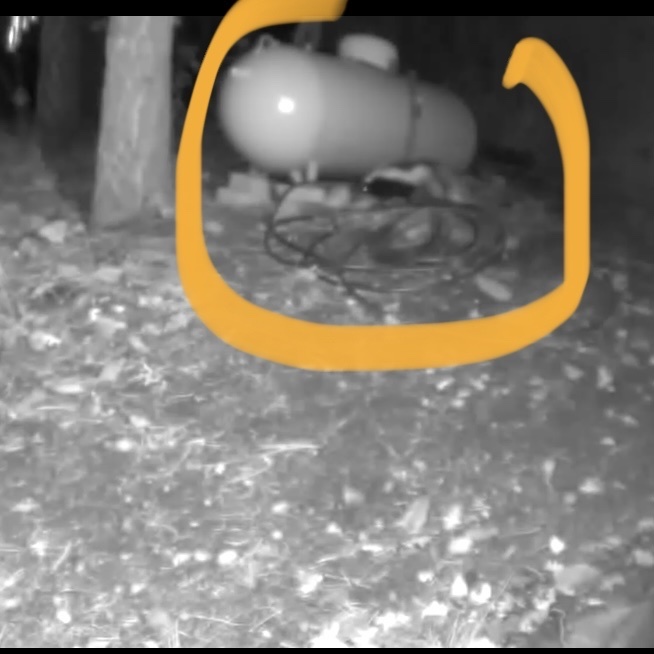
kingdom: Animalia
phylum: Chordata
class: Mammalia
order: Carnivora
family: Mephitidae
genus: Mephitis
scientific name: Mephitis mephitis
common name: Striped skunk
